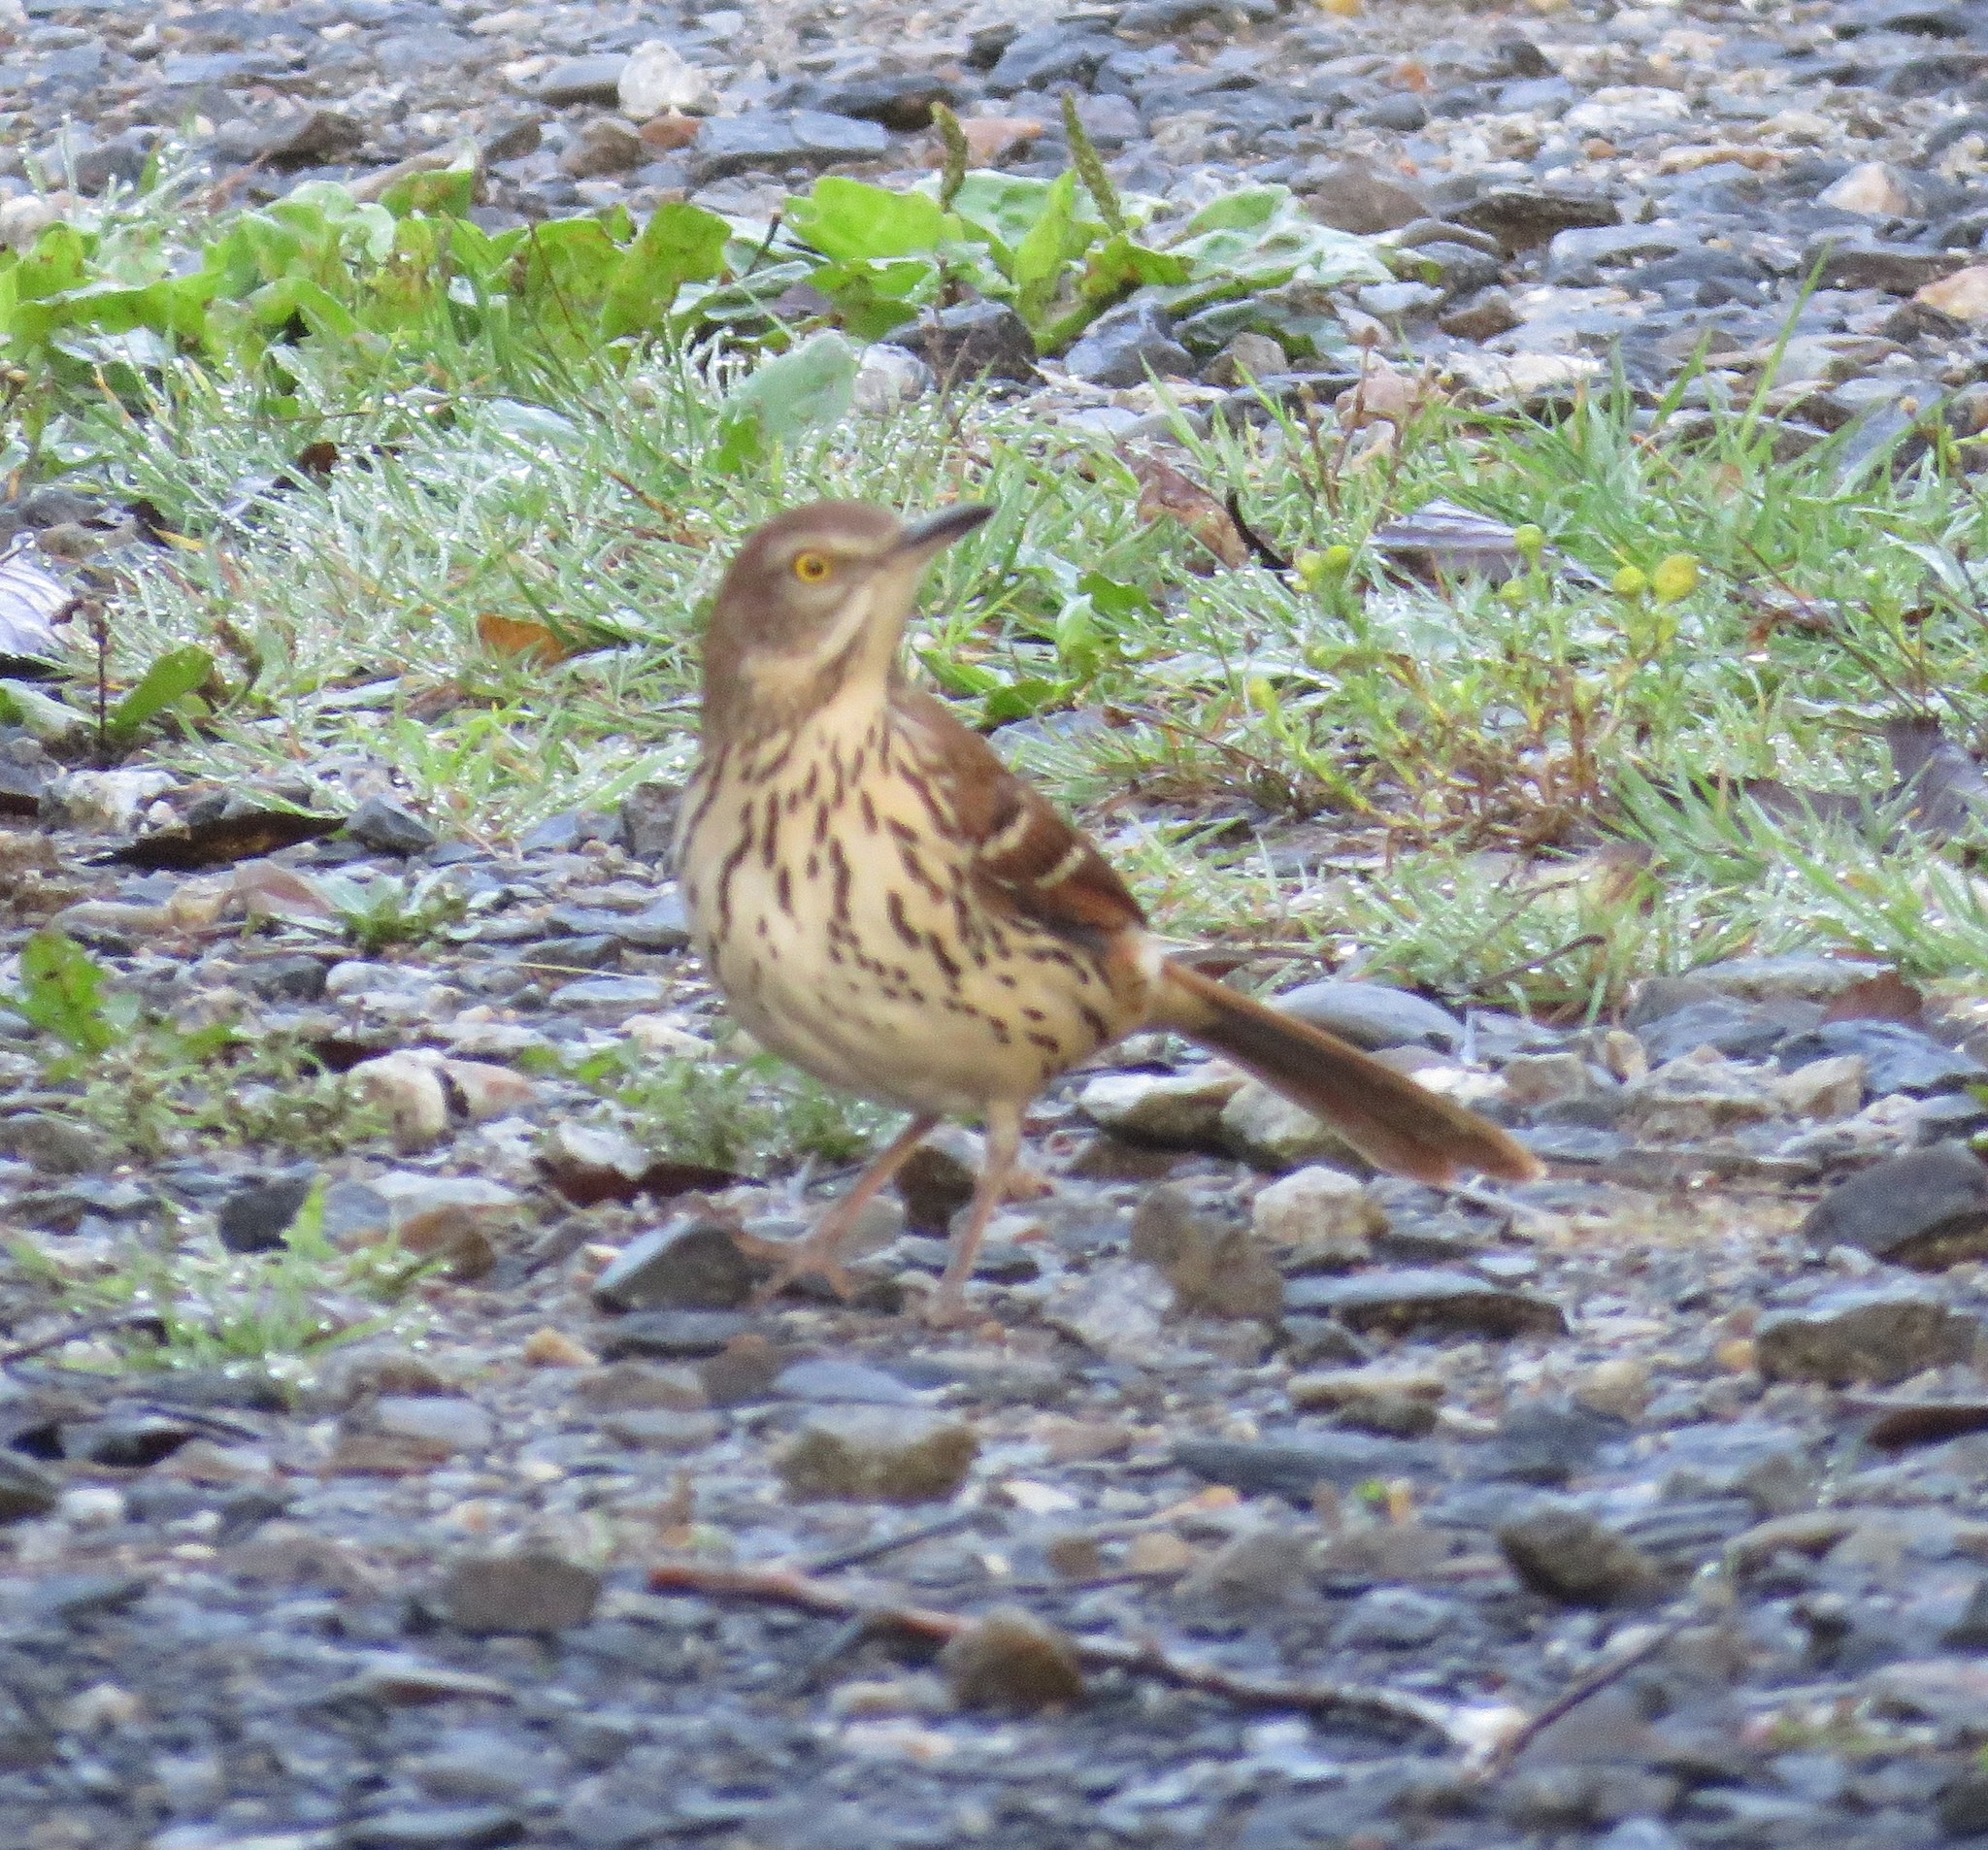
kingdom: Animalia
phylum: Chordata
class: Aves
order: Passeriformes
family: Mimidae
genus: Toxostoma
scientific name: Toxostoma rufum
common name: Brown thrasher
